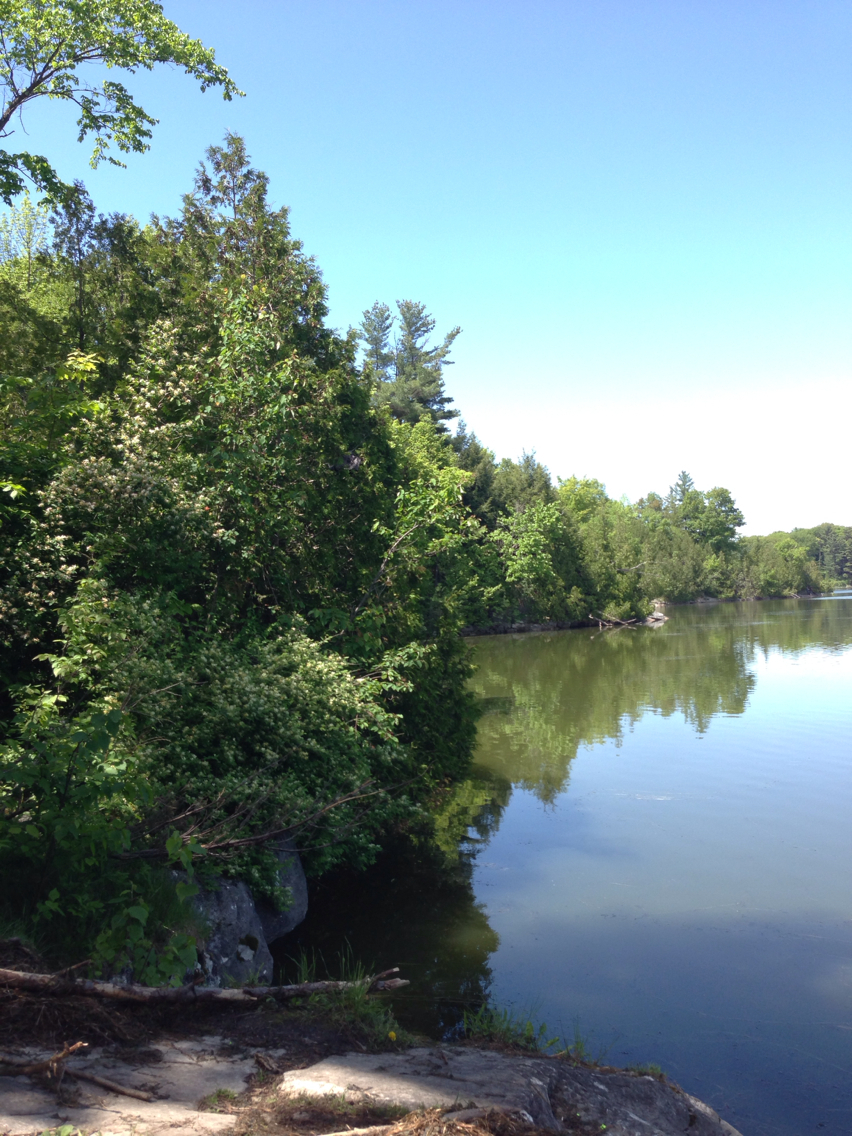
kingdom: Plantae
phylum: Tracheophyta
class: Pinopsida
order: Pinales
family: Cupressaceae
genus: Thuja
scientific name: Thuja occidentalis
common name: Northern white-cedar
